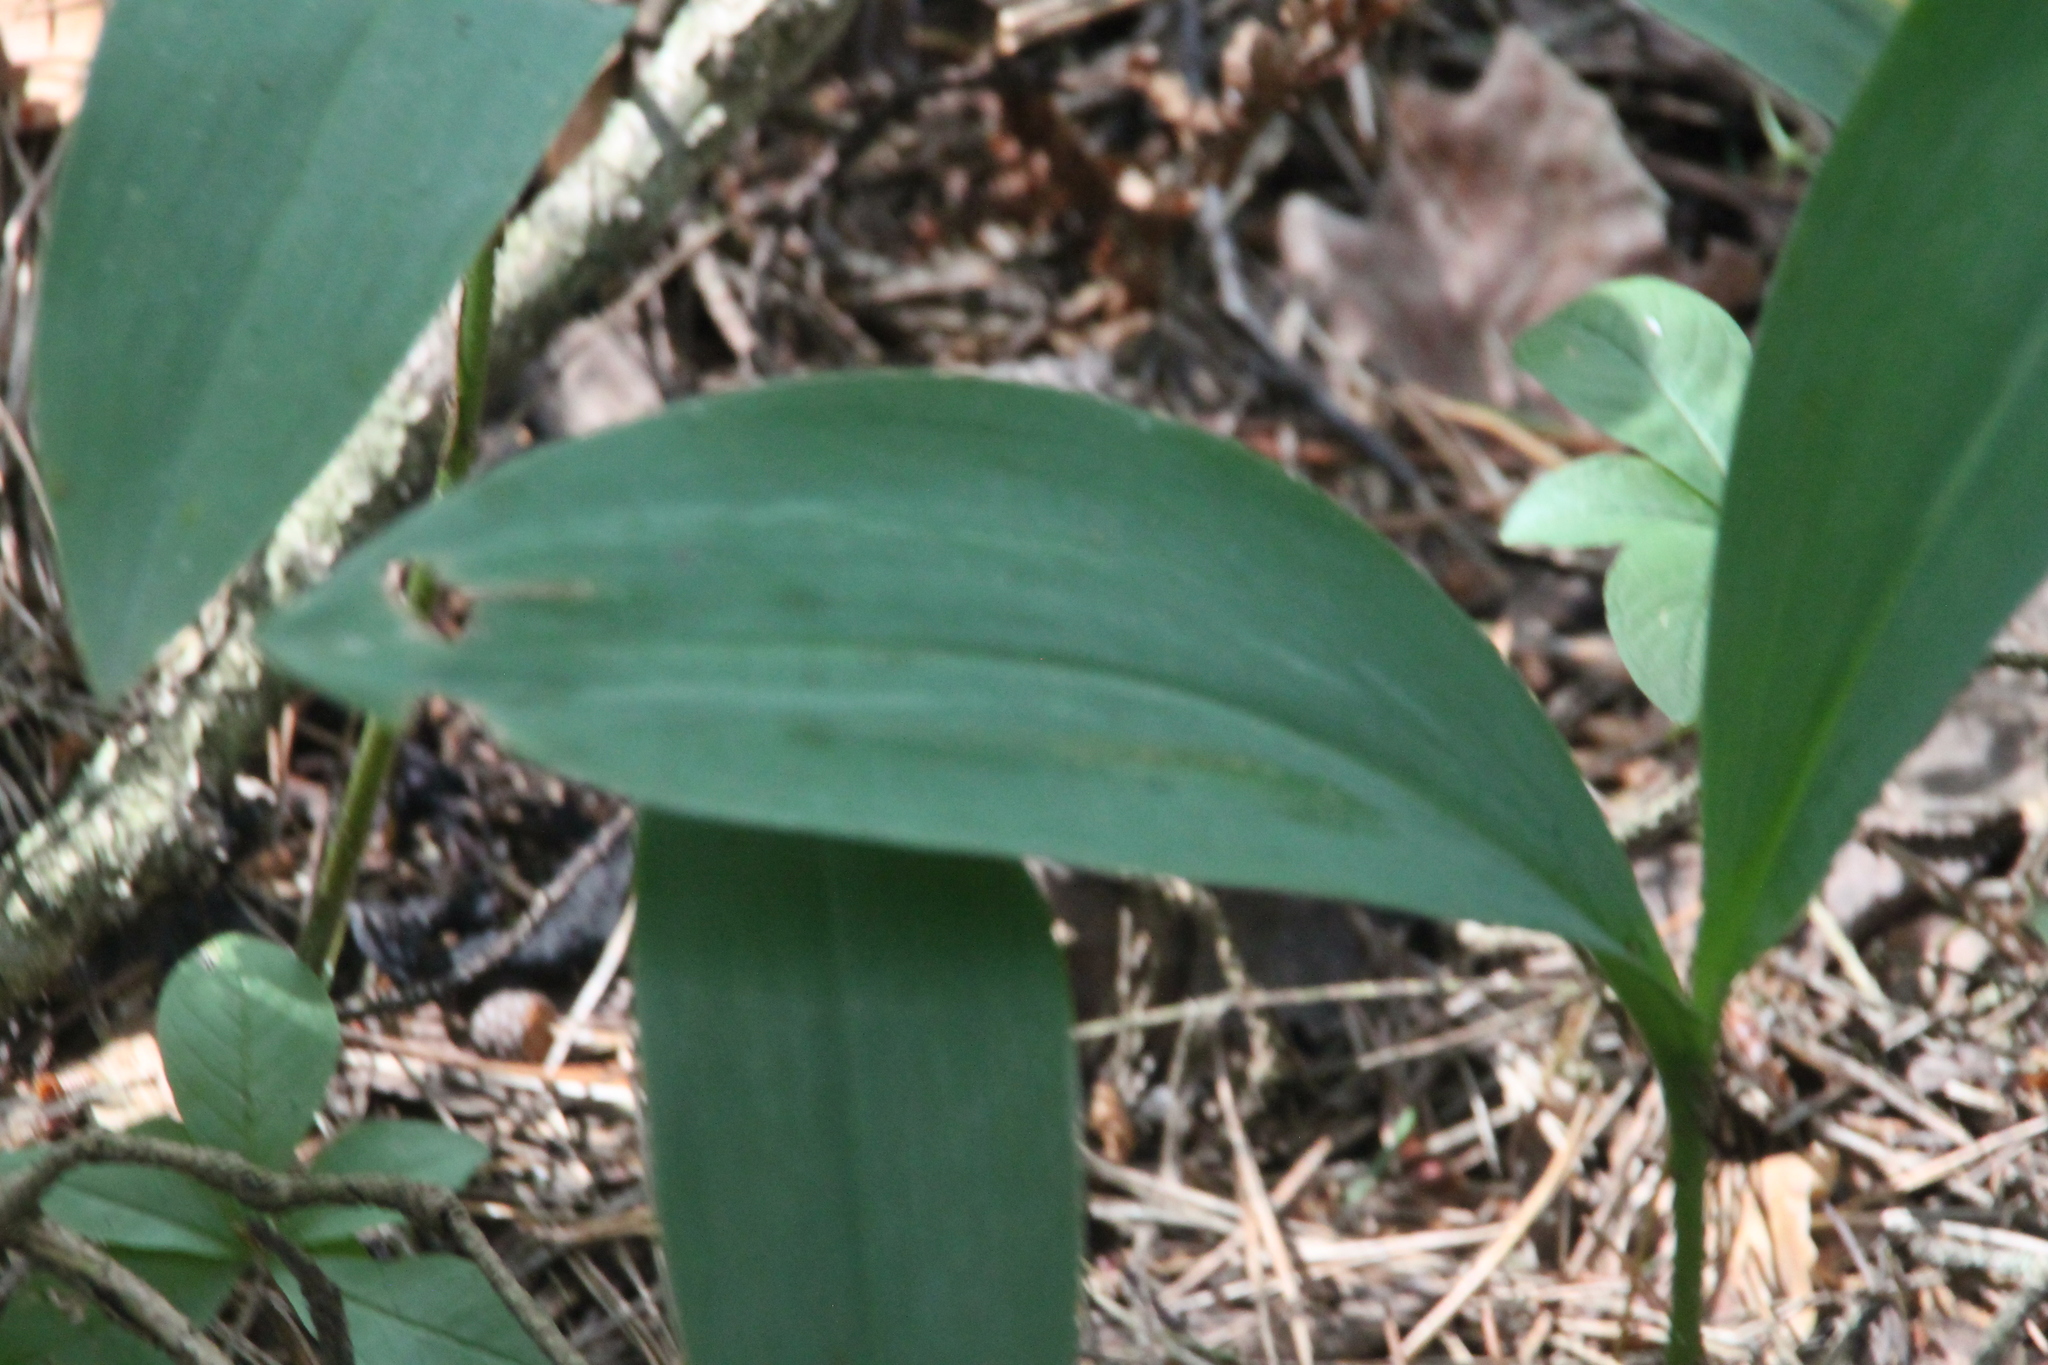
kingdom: Plantae
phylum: Tracheophyta
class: Liliopsida
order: Asparagales
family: Asparagaceae
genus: Convallaria
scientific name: Convallaria majalis
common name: Lily-of-the-valley
